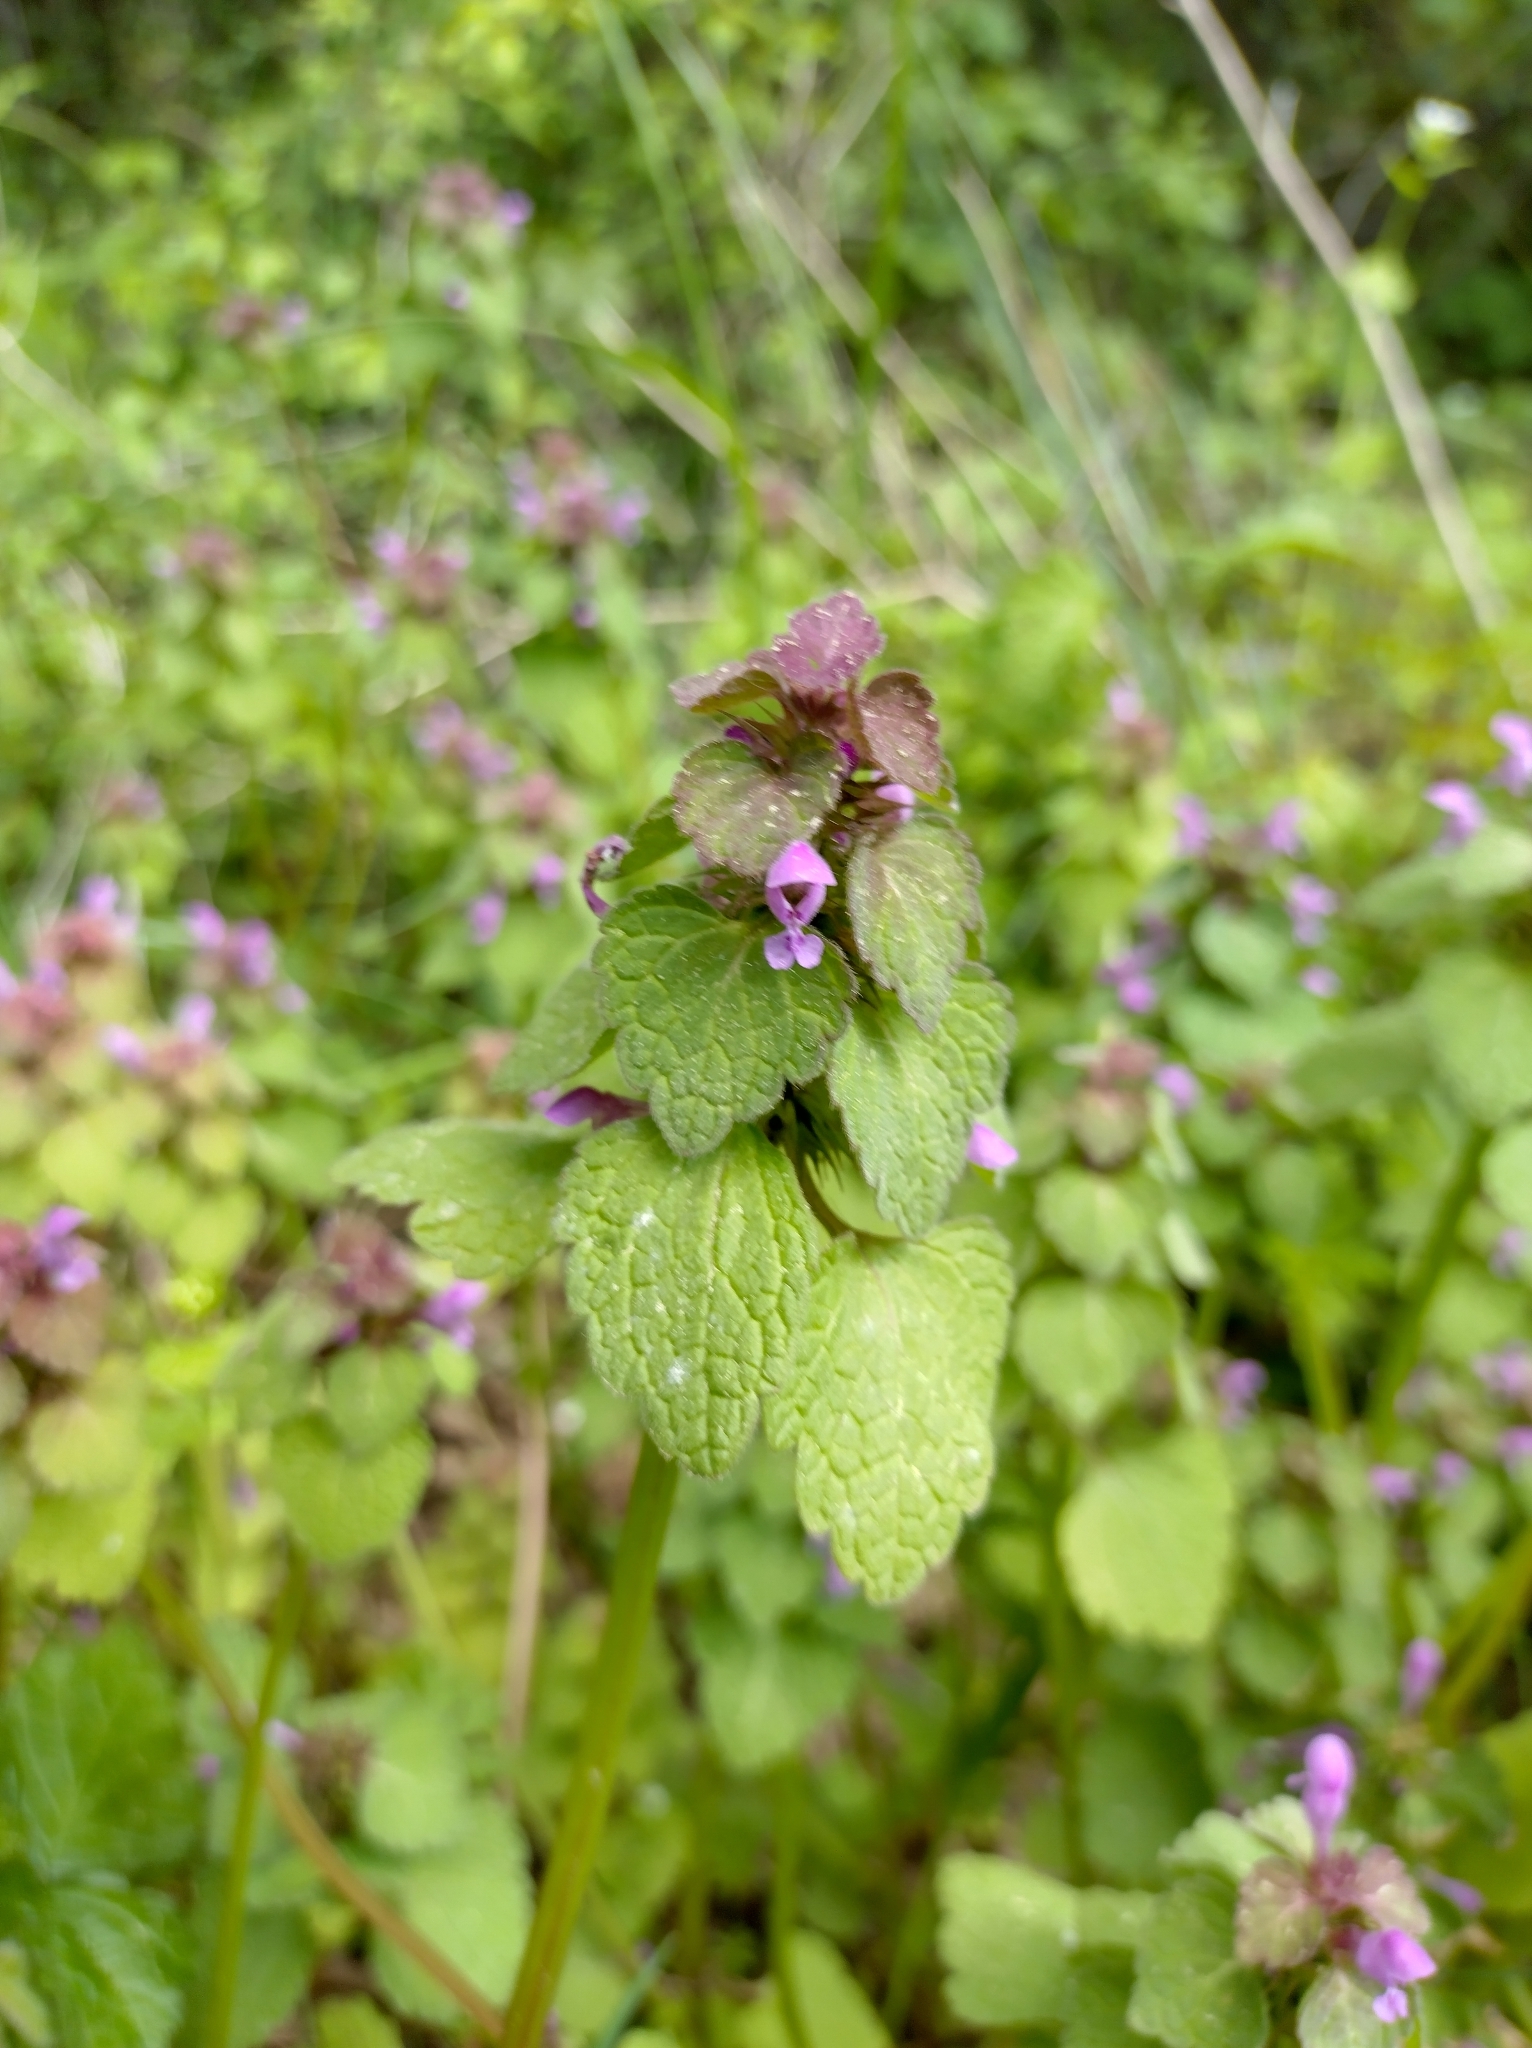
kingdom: Plantae
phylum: Tracheophyta
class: Magnoliopsida
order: Lamiales
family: Lamiaceae
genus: Lamium
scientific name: Lamium purpureum
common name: Red dead-nettle
